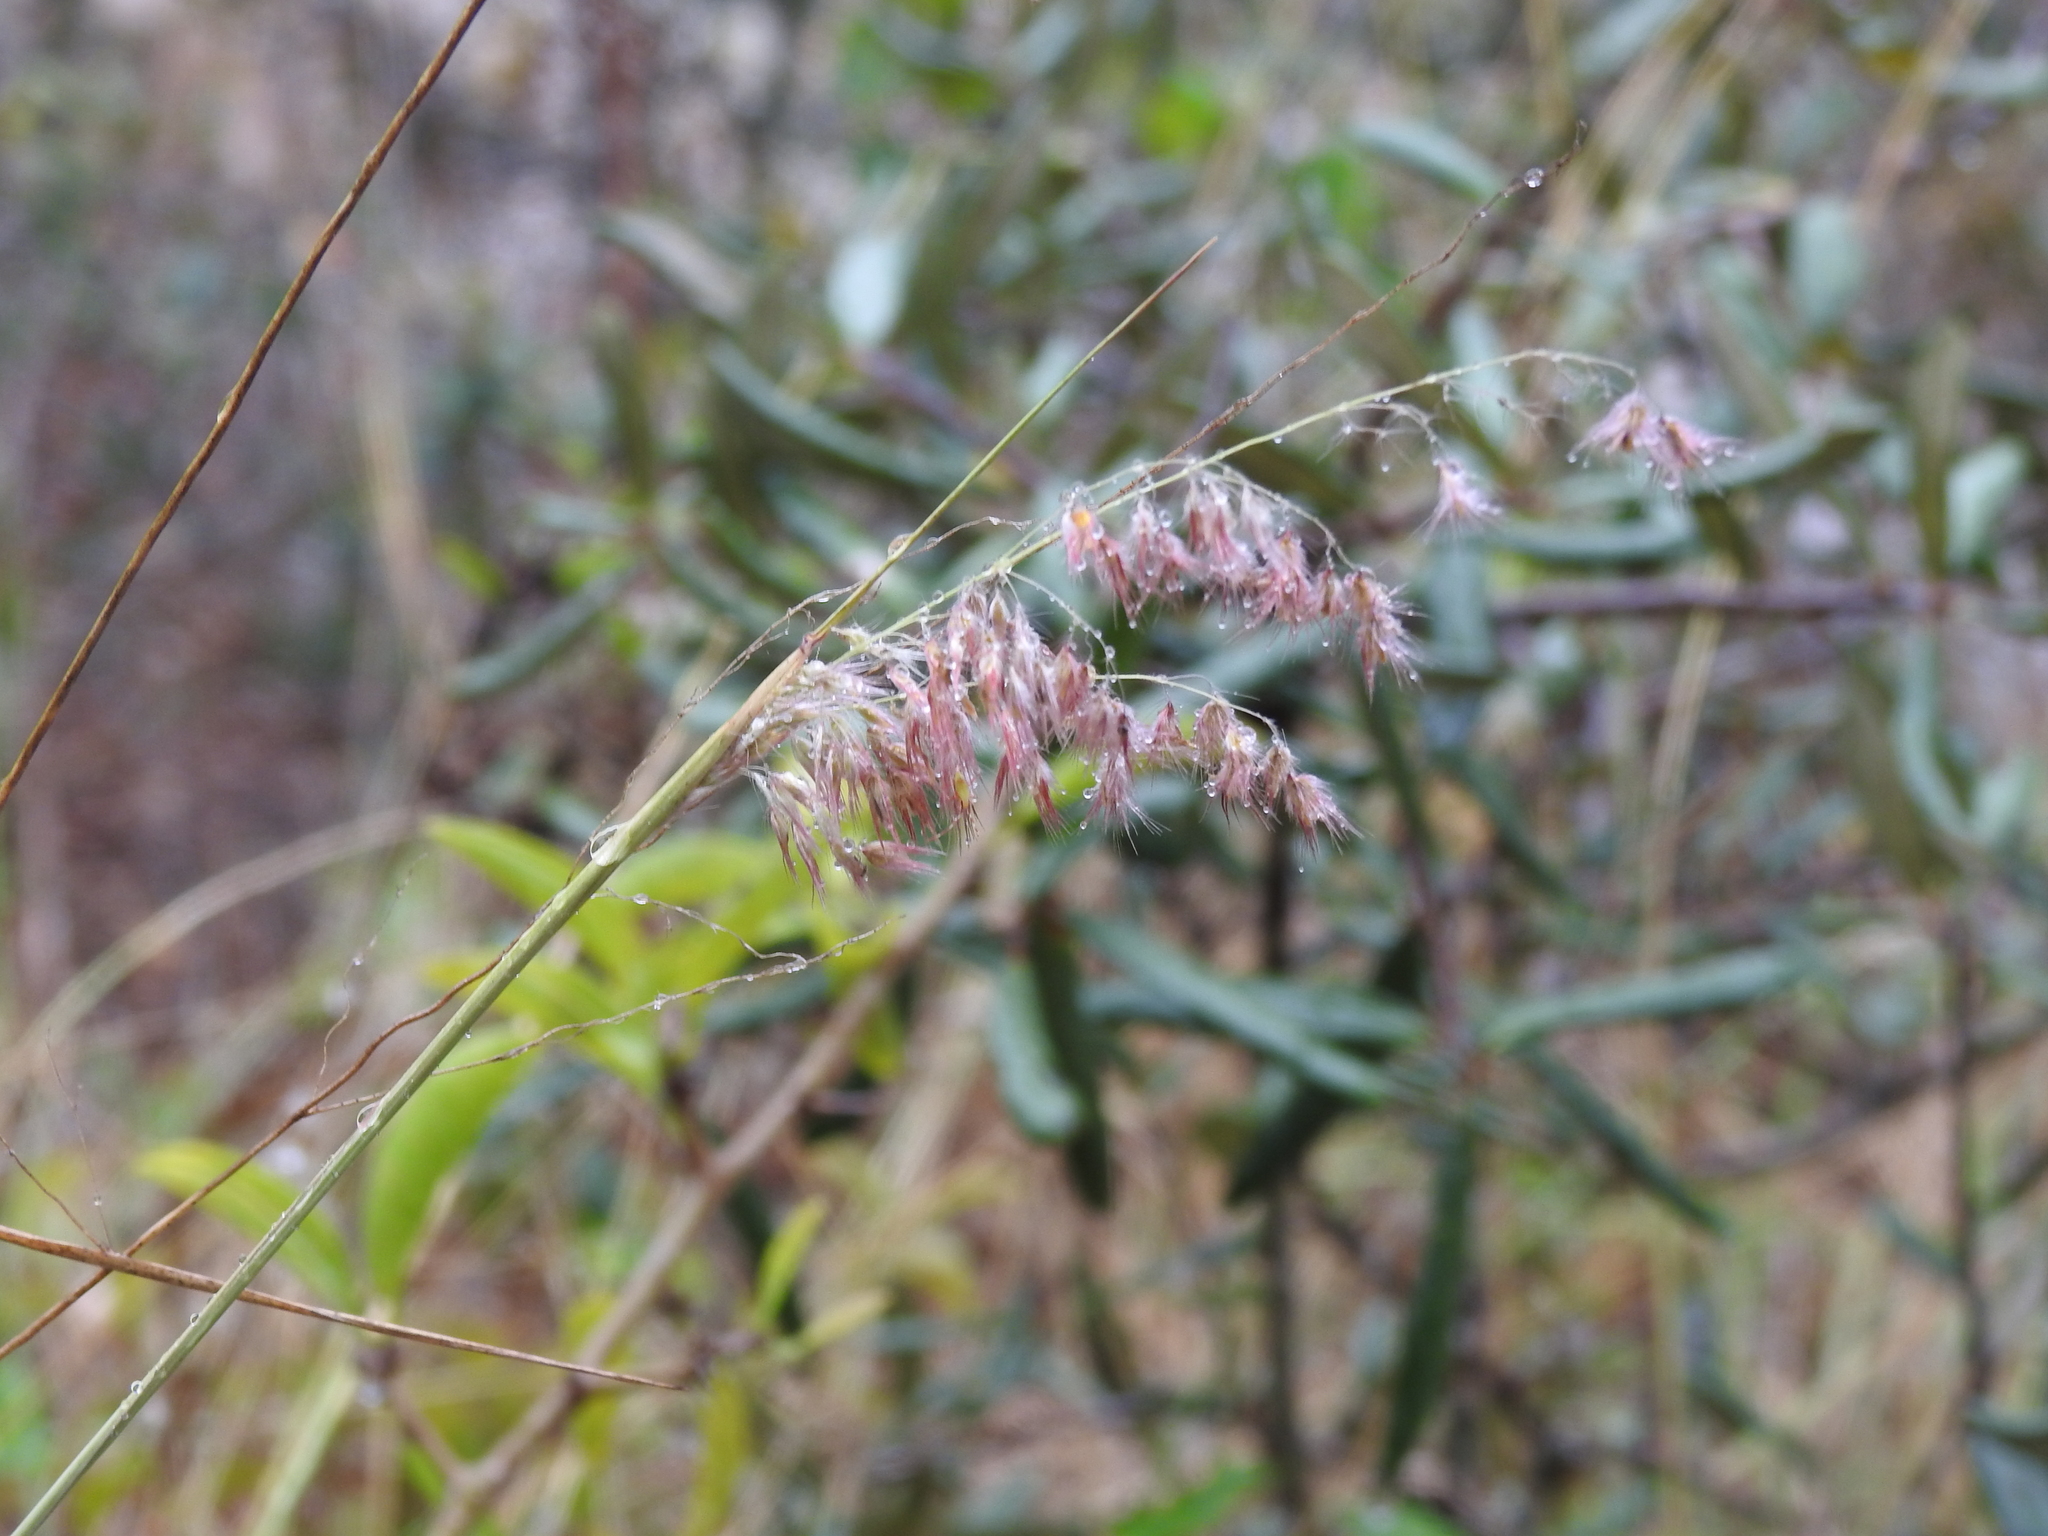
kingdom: Plantae
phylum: Tracheophyta
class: Liliopsida
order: Poales
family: Poaceae
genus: Melinis
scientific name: Melinis repens
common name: Rose natal grass
